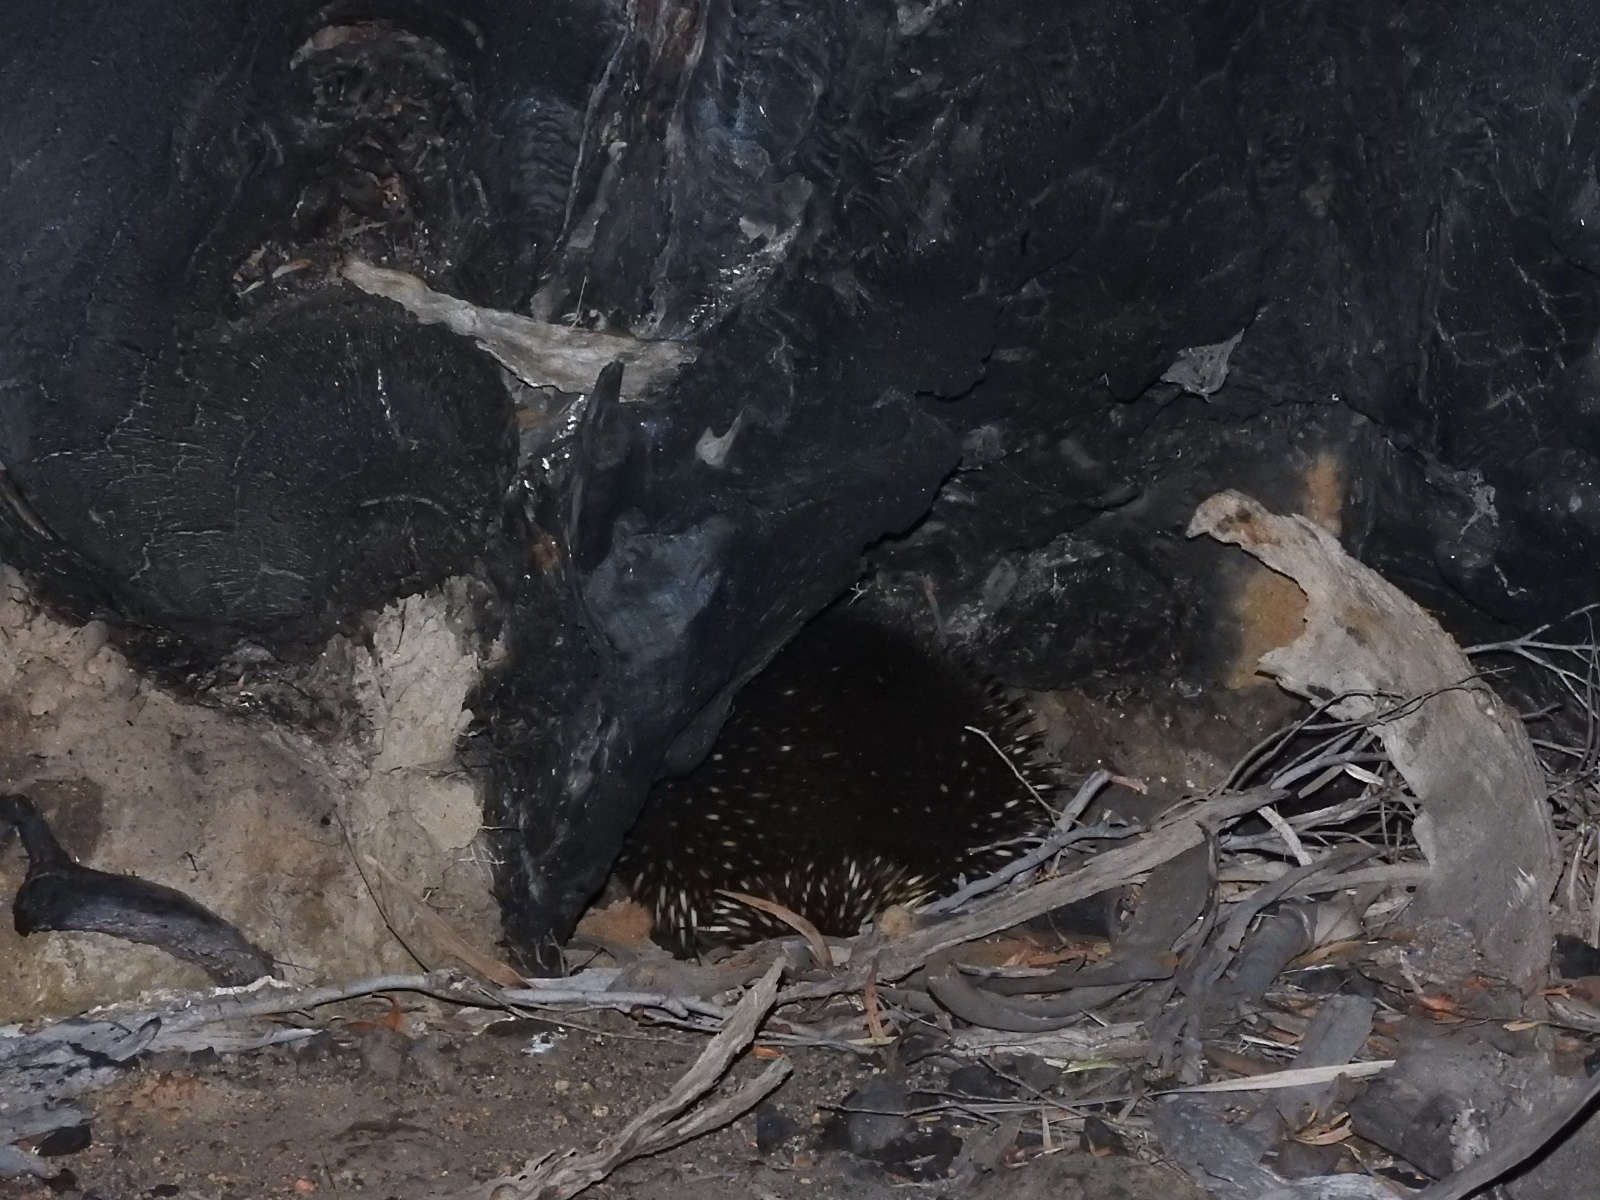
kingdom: Animalia
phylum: Chordata
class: Mammalia
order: Monotremata
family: Tachyglossidae
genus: Tachyglossus
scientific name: Tachyglossus aculeatus
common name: Short-beaked echidna
